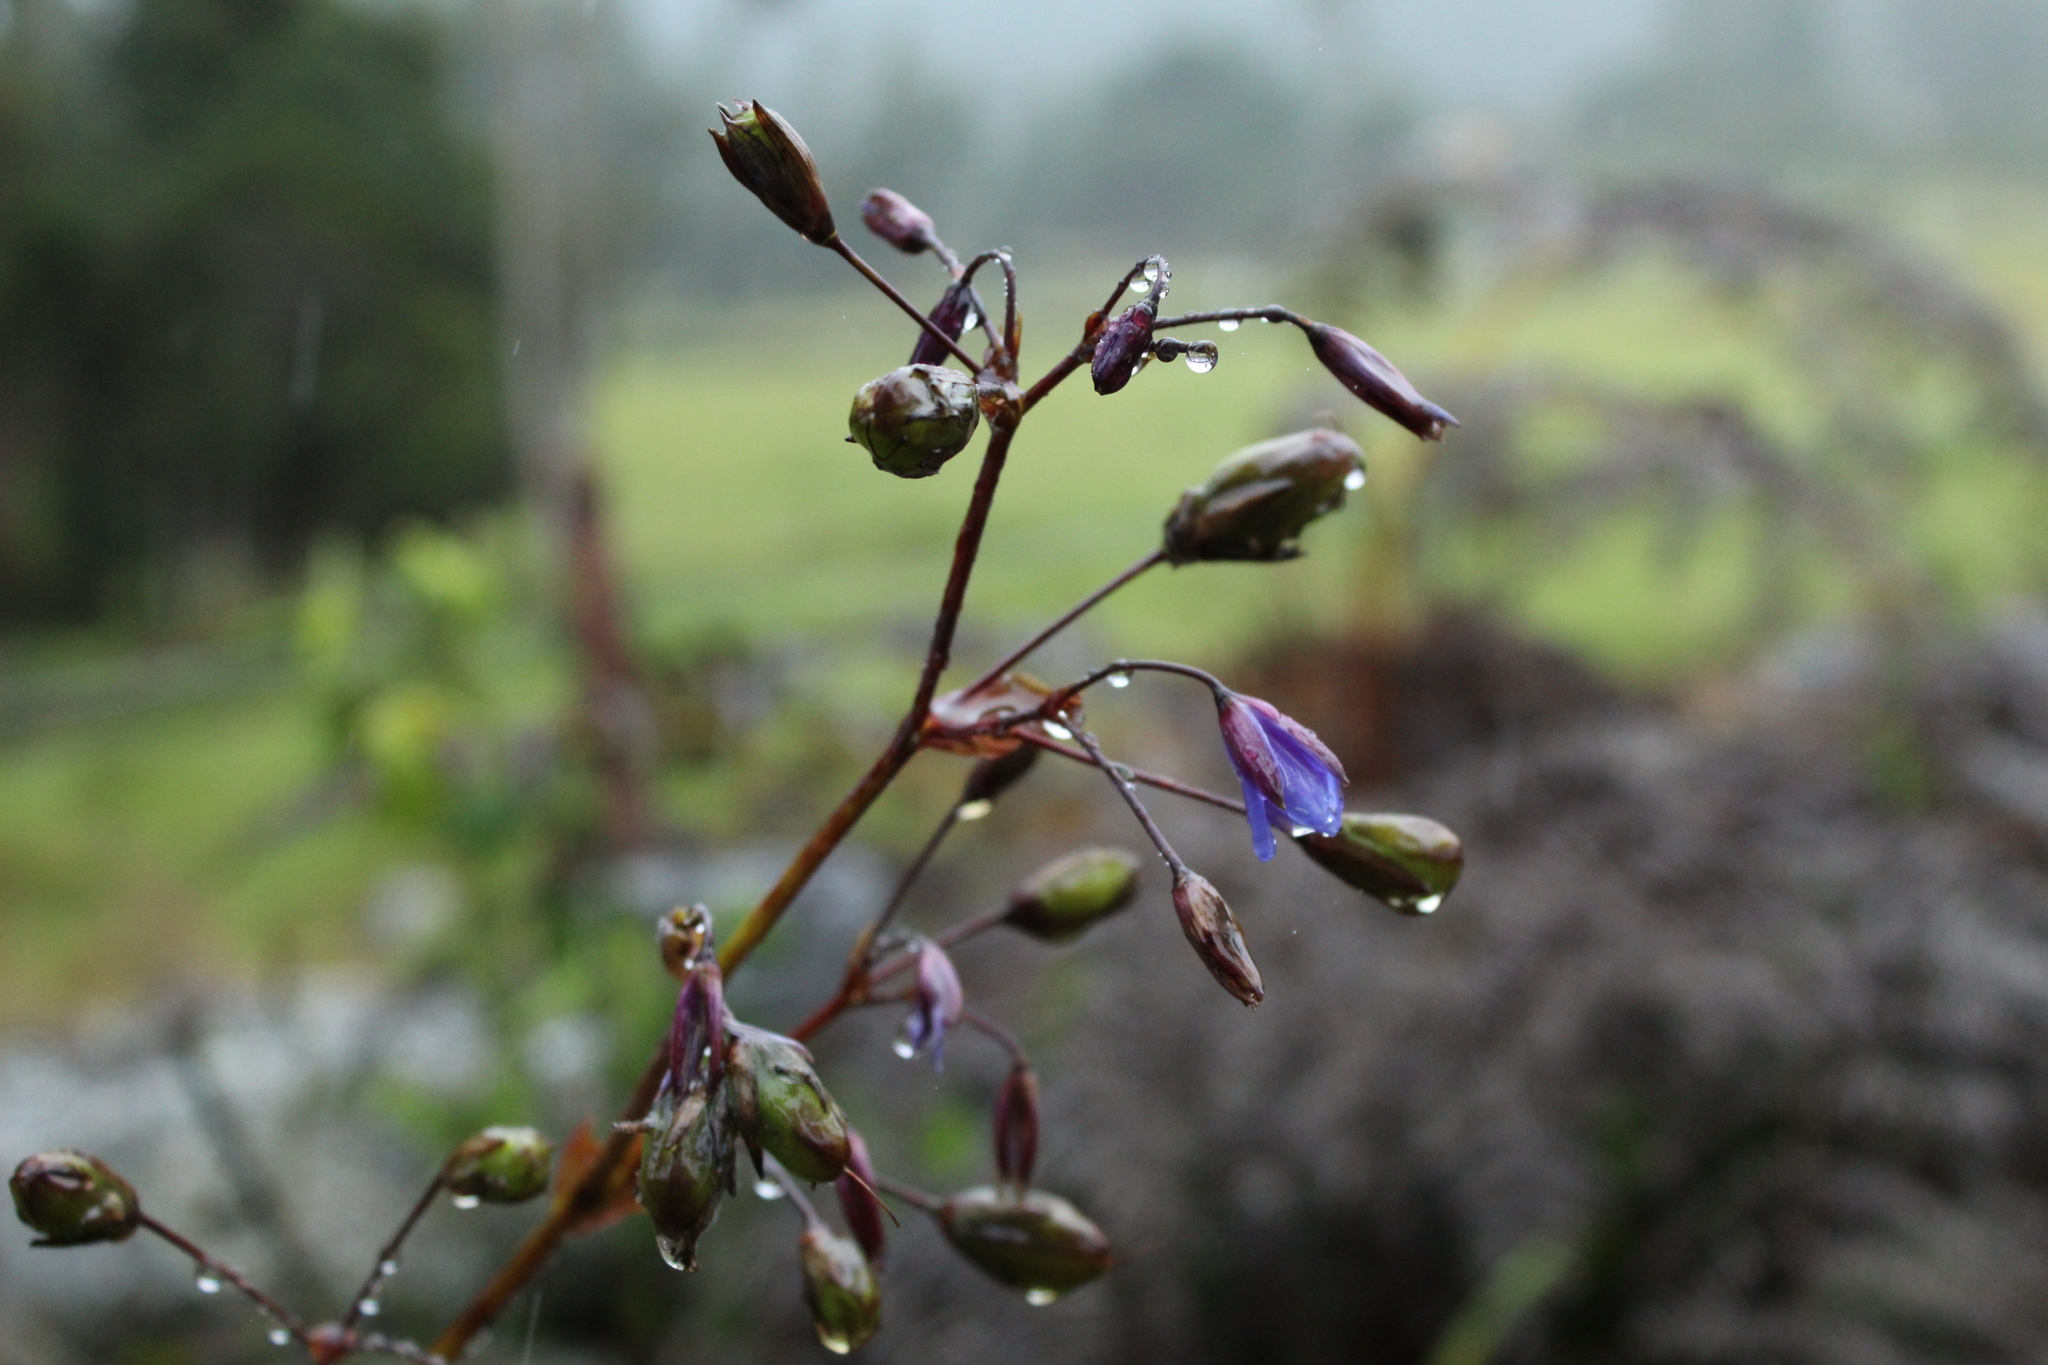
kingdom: Plantae
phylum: Tracheophyta
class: Liliopsida
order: Asparagales
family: Asphodelaceae
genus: Excremis
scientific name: Excremis coarctata
